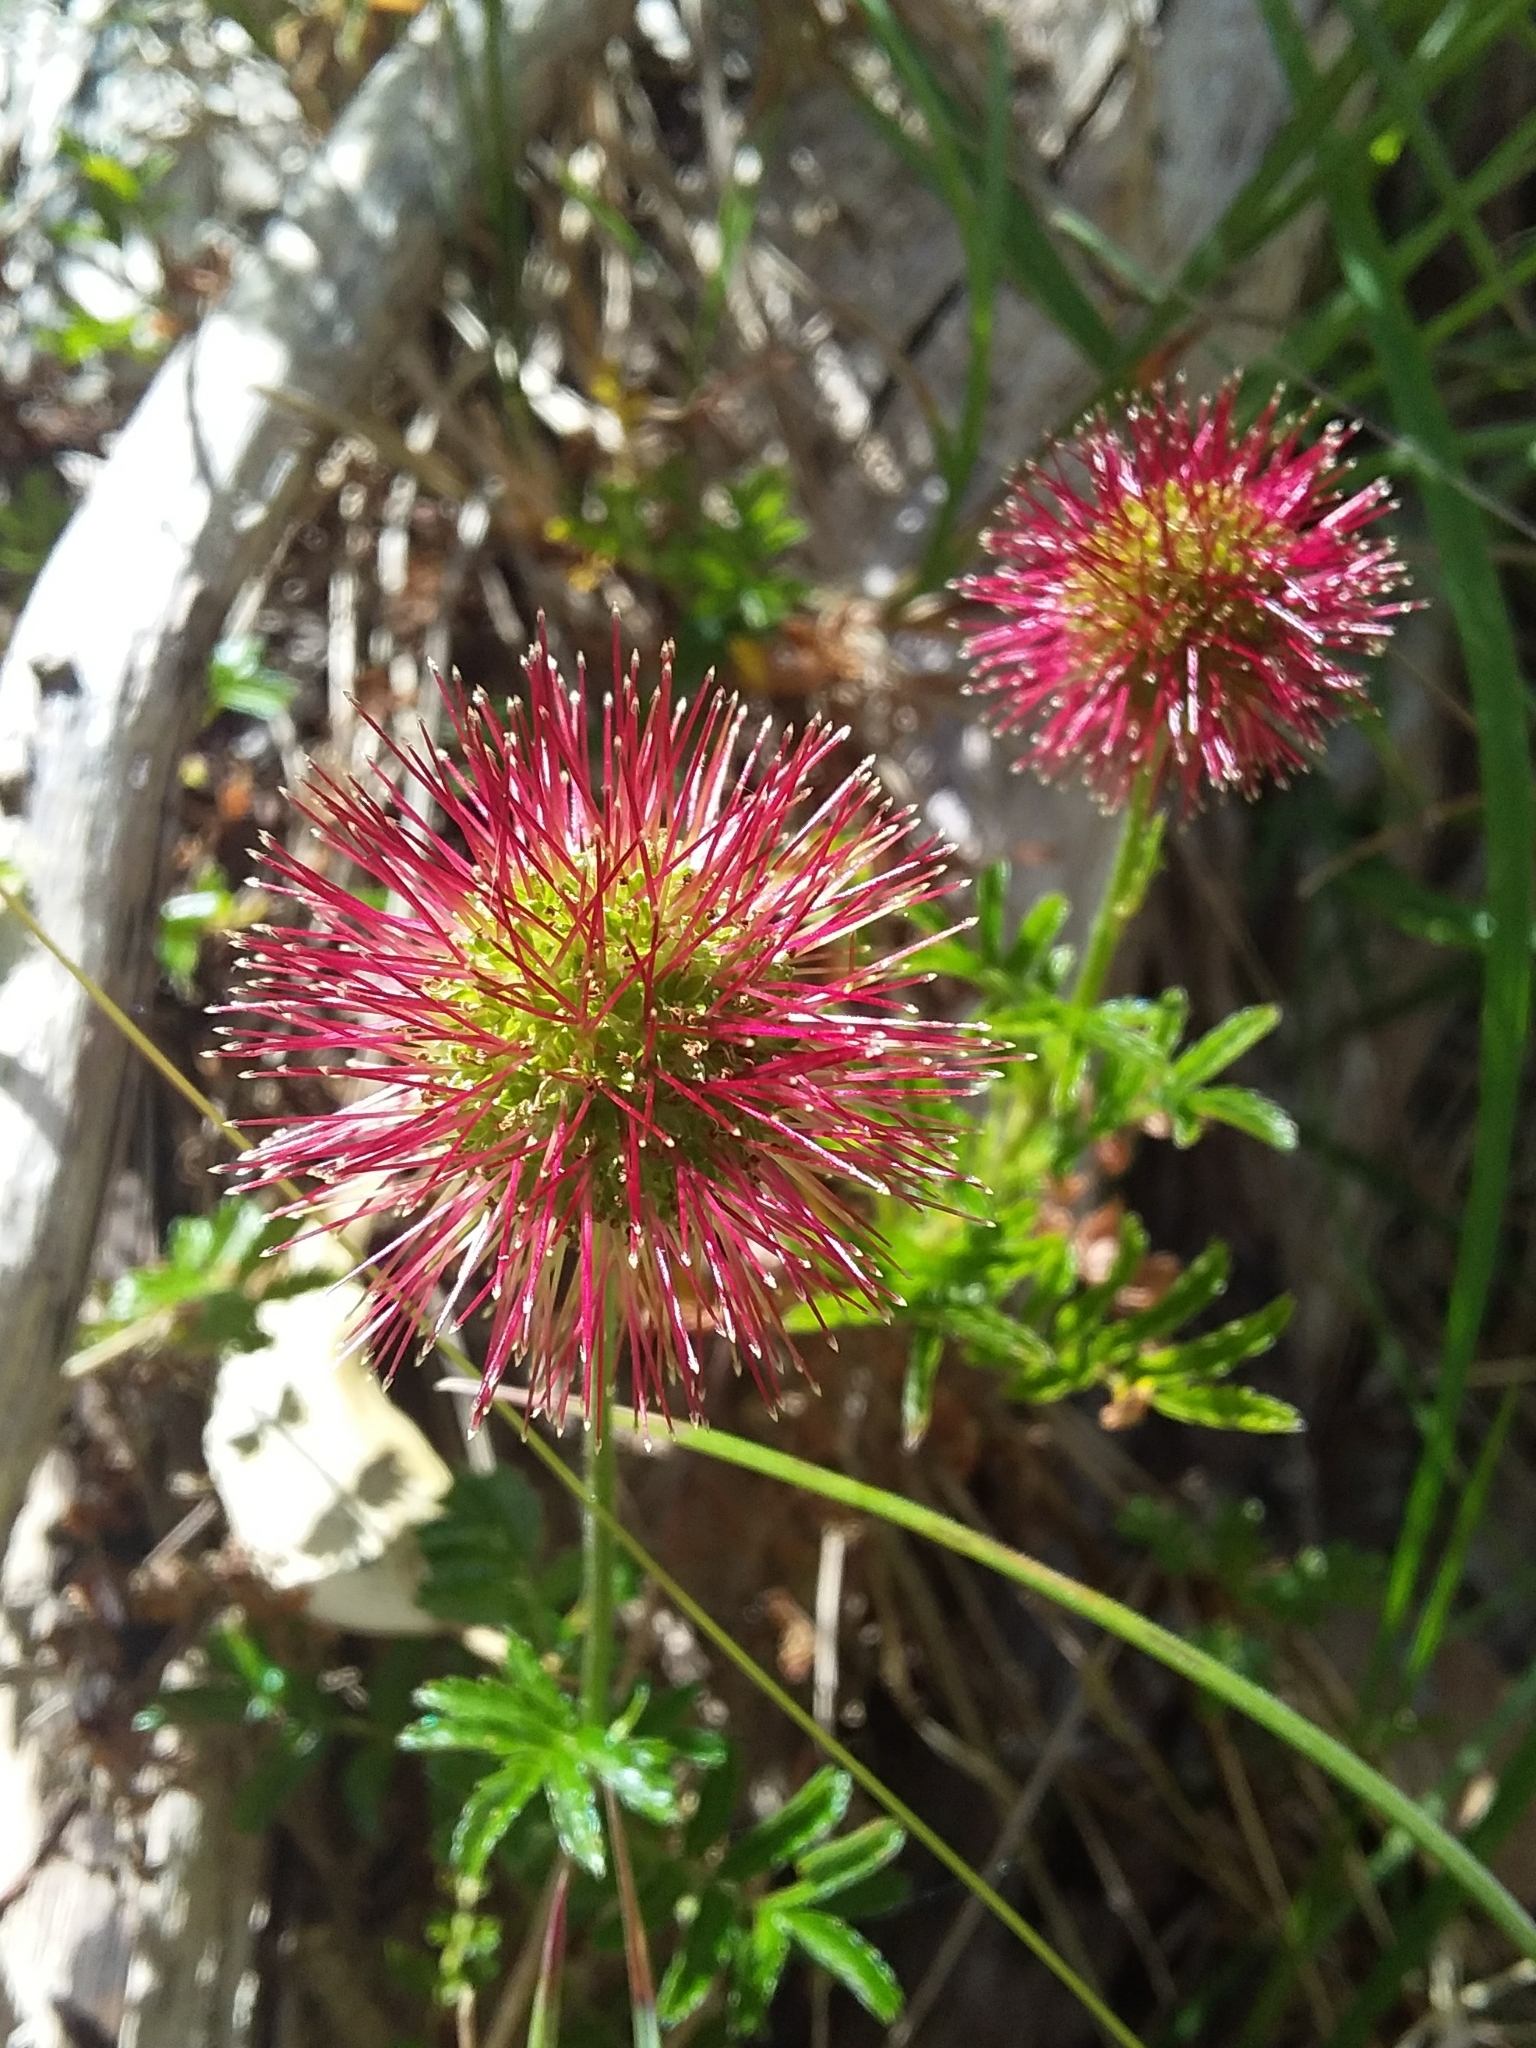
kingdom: Plantae
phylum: Tracheophyta
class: Magnoliopsida
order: Rosales
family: Rosaceae
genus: Acaena
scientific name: Acaena novae-zelandiae
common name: Pirri-pirri-bur
